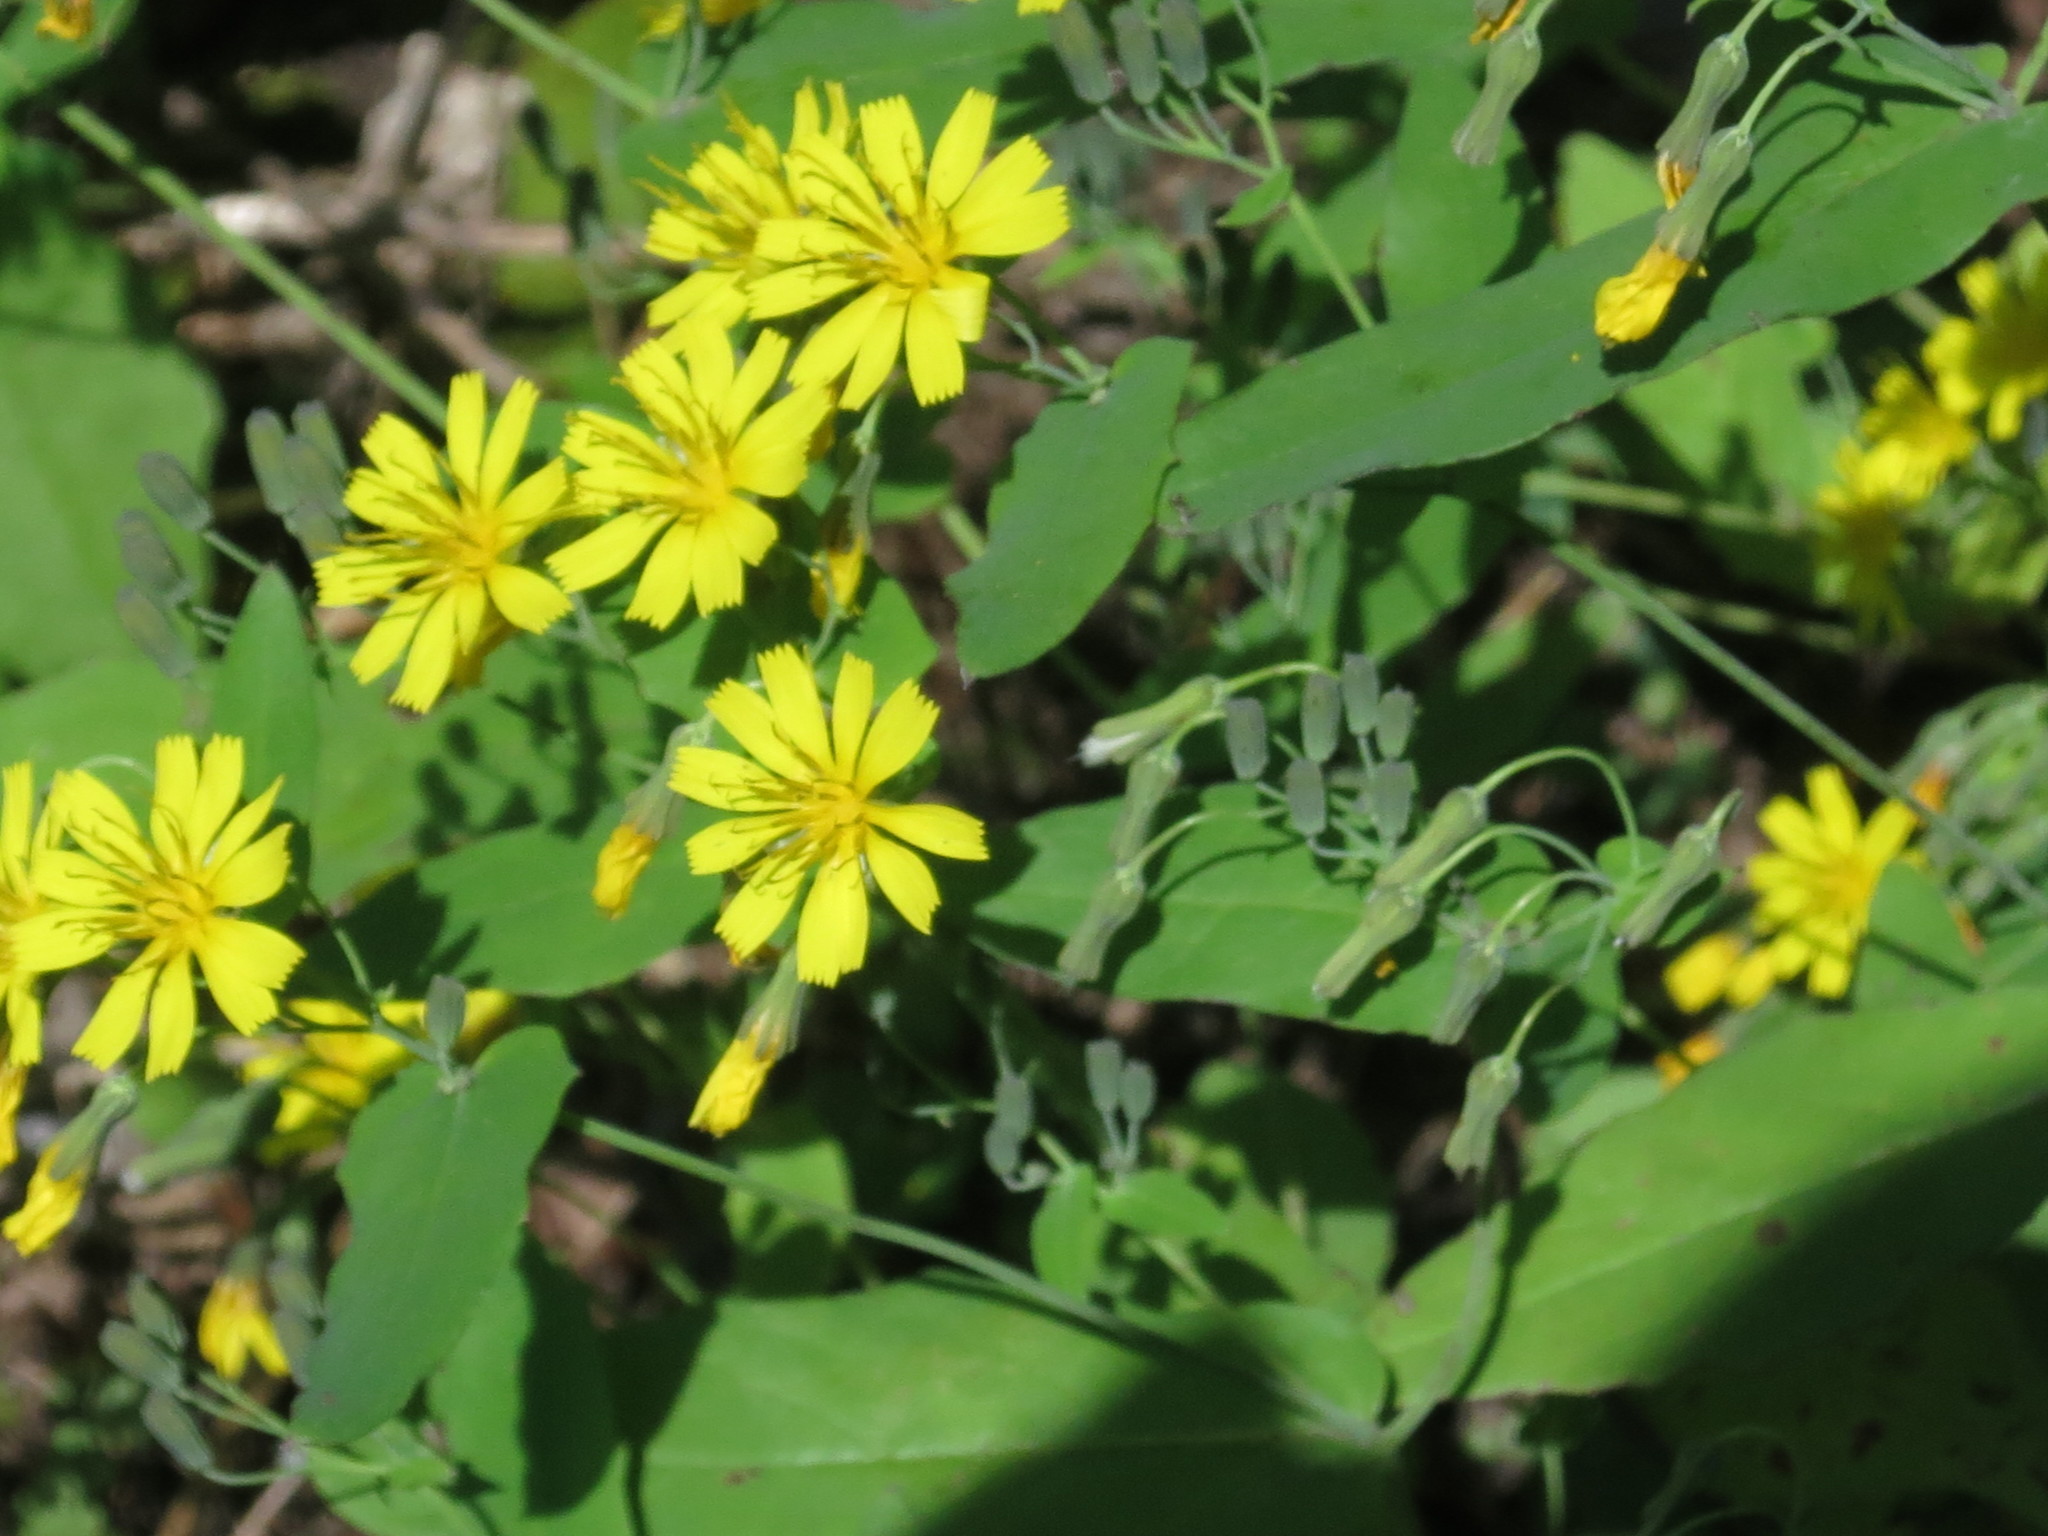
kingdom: Plantae
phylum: Tracheophyta
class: Magnoliopsida
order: Asterales
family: Asteraceae
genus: Crepidiastrum
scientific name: Crepidiastrum denticulatum
